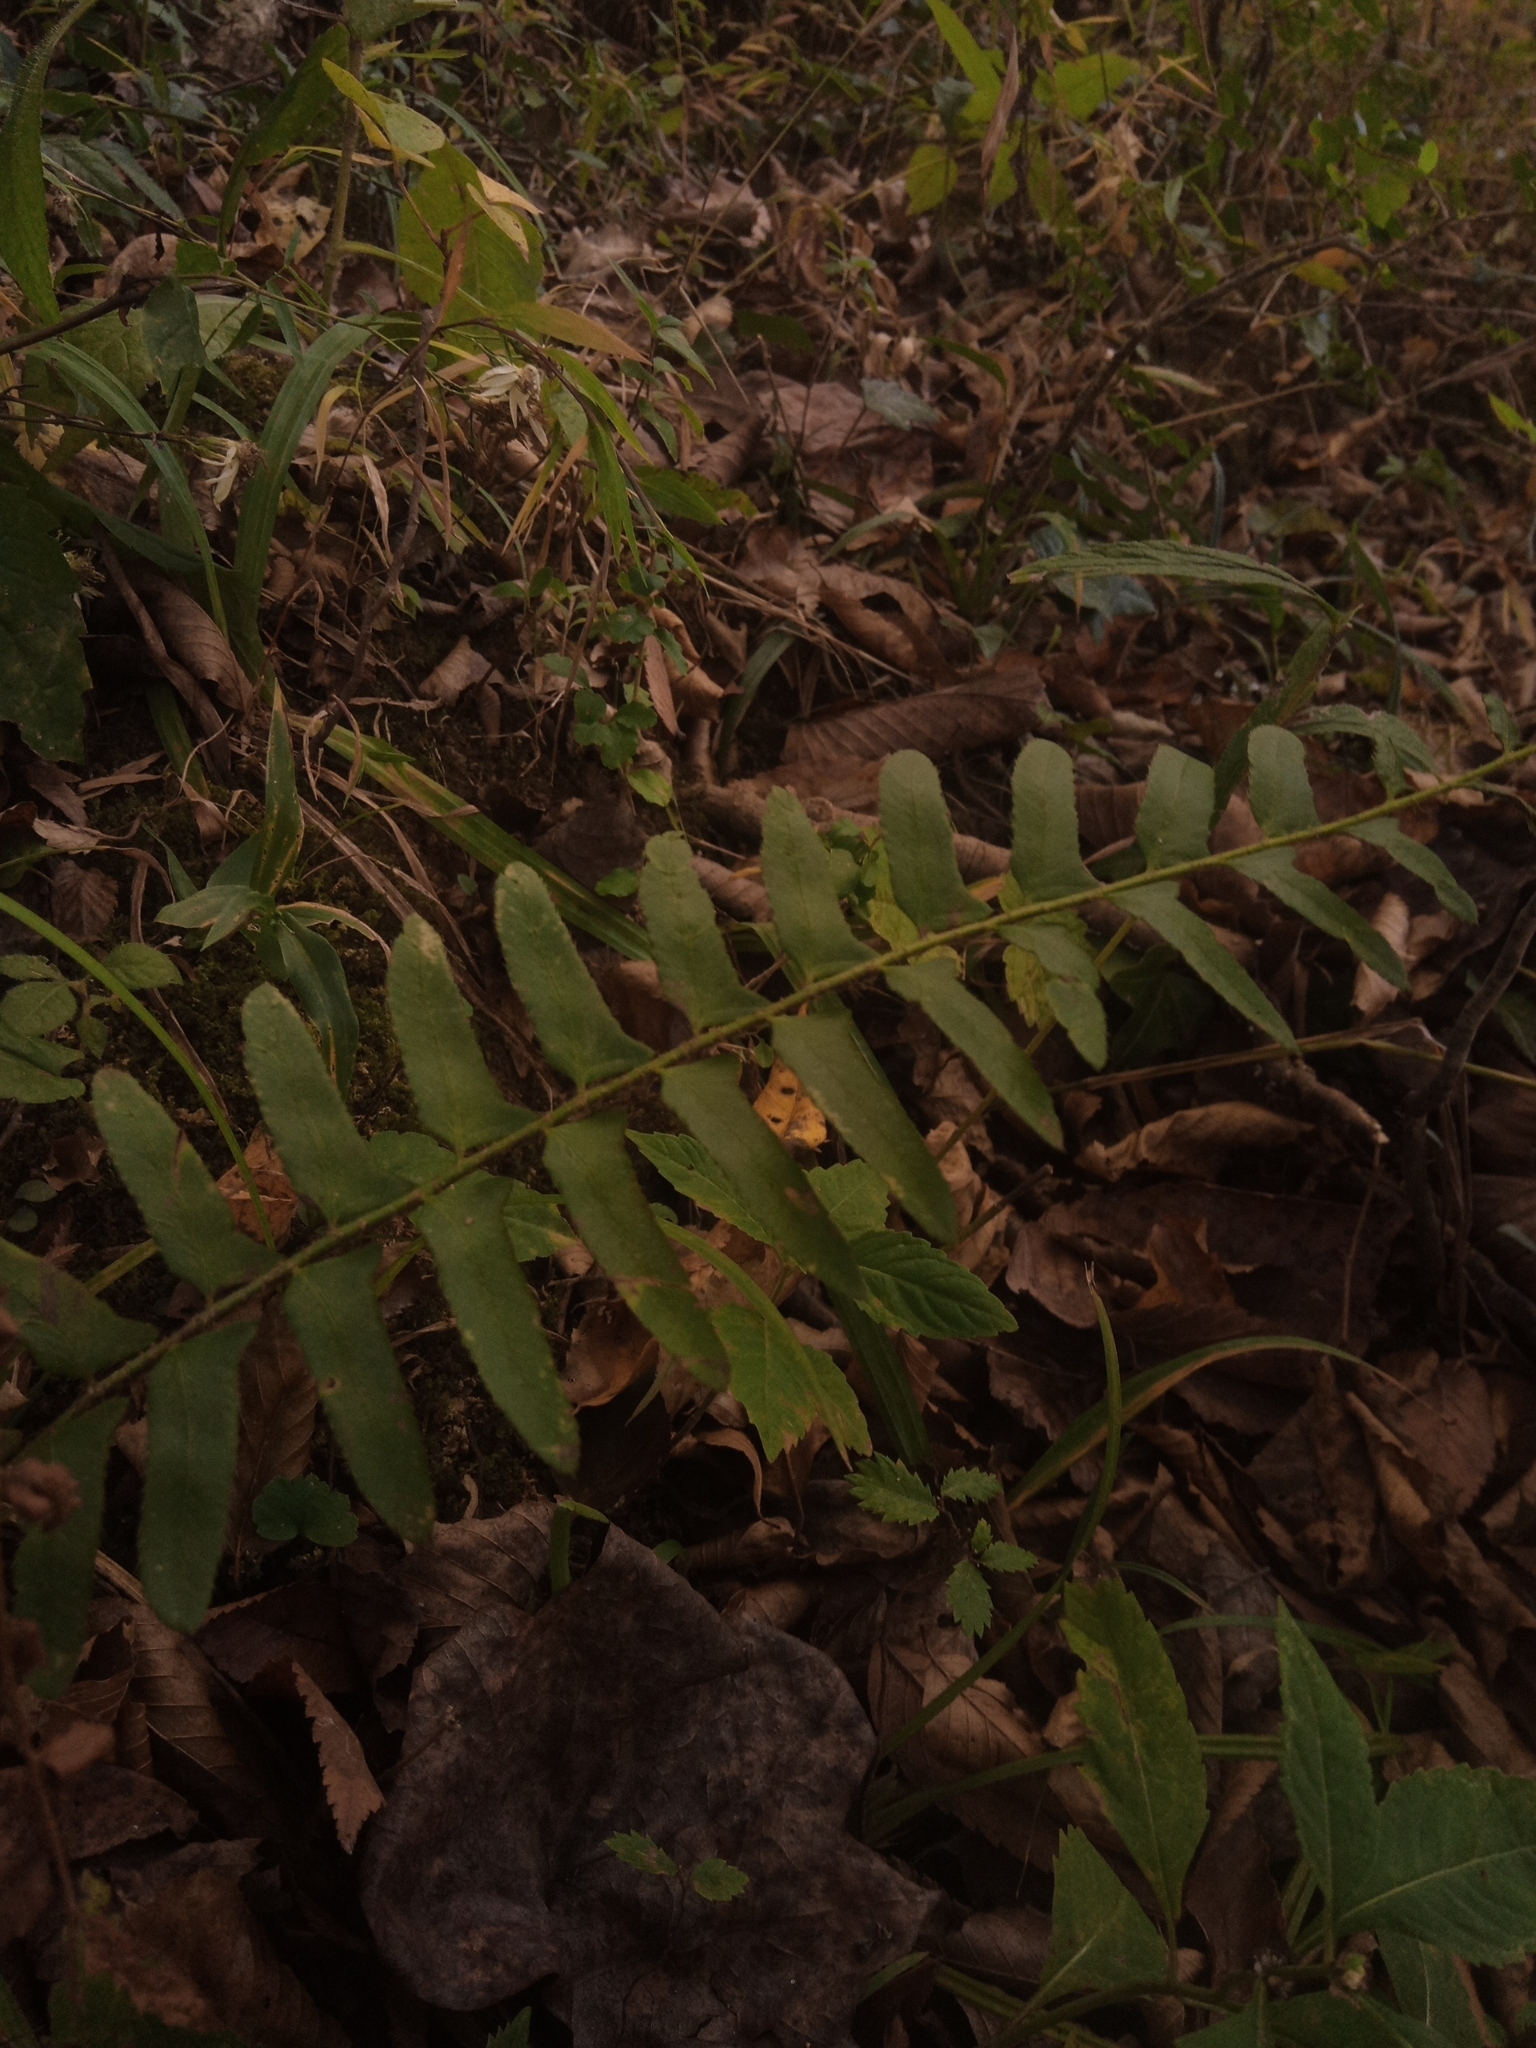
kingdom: Plantae
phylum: Tracheophyta
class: Polypodiopsida
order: Polypodiales
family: Dryopteridaceae
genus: Polystichum
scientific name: Polystichum acrostichoides
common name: Christmas fern
